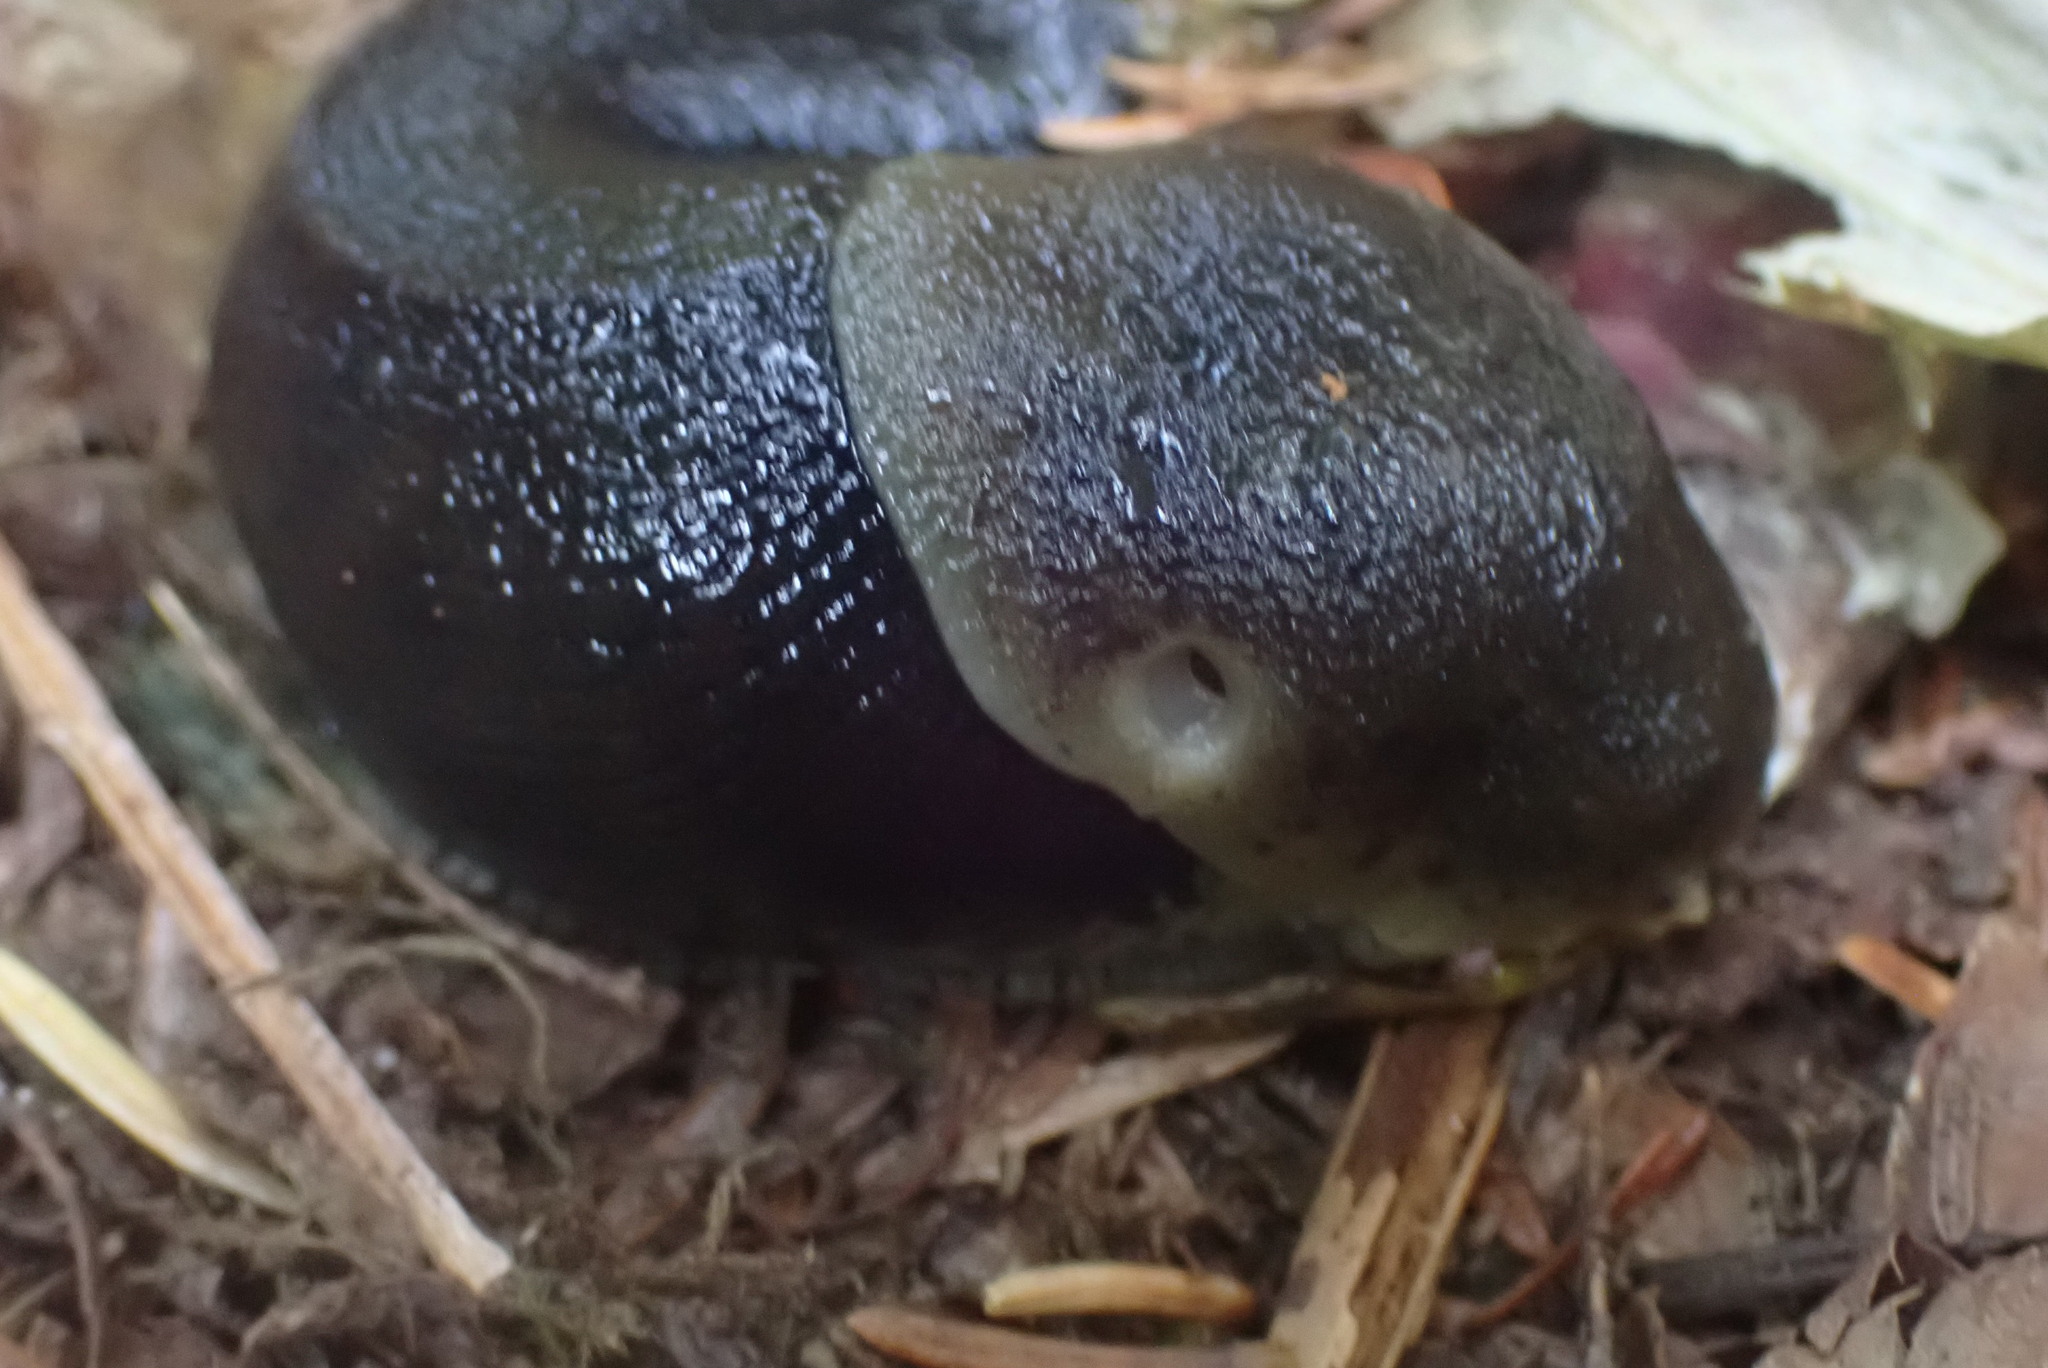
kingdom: Animalia
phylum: Mollusca
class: Gastropoda
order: Stylommatophora
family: Ariolimacidae
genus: Ariolimax
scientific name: Ariolimax columbianus
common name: Pacific banana slug
